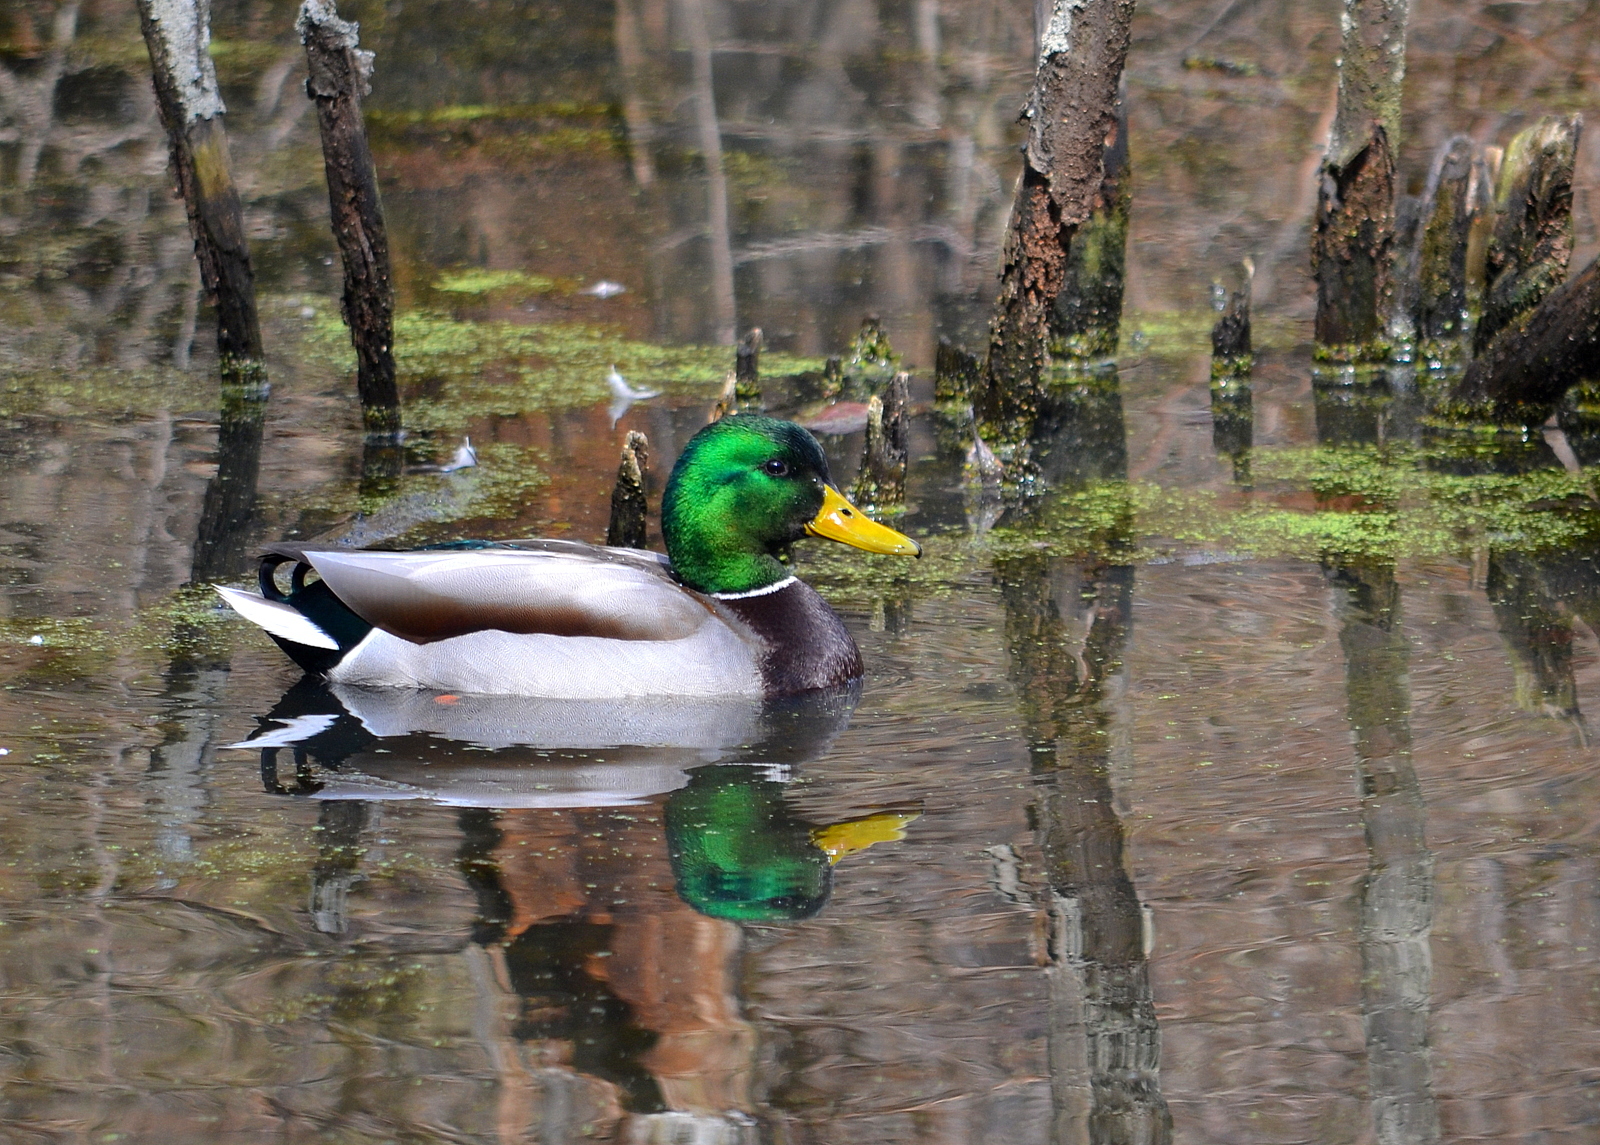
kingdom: Animalia
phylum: Chordata
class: Aves
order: Anseriformes
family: Anatidae
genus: Anas
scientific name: Anas platyrhynchos
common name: Mallard
